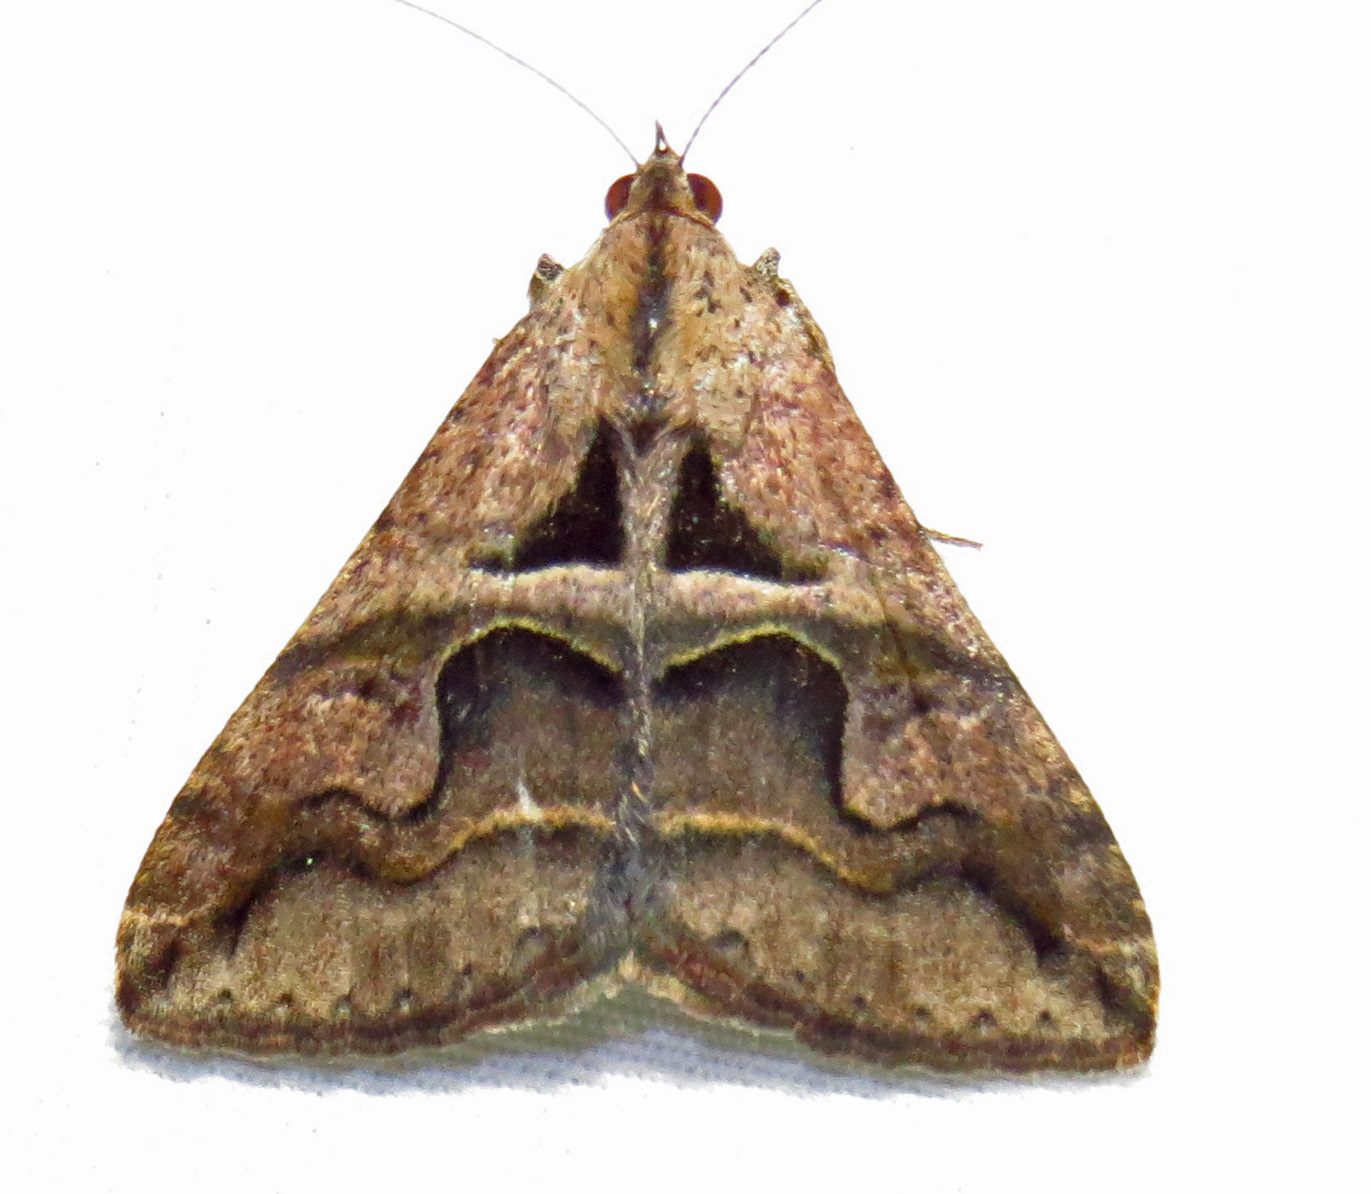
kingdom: Animalia
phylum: Arthropoda
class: Insecta
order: Lepidoptera
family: Erebidae
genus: Melipotis
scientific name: Melipotis cellaris
